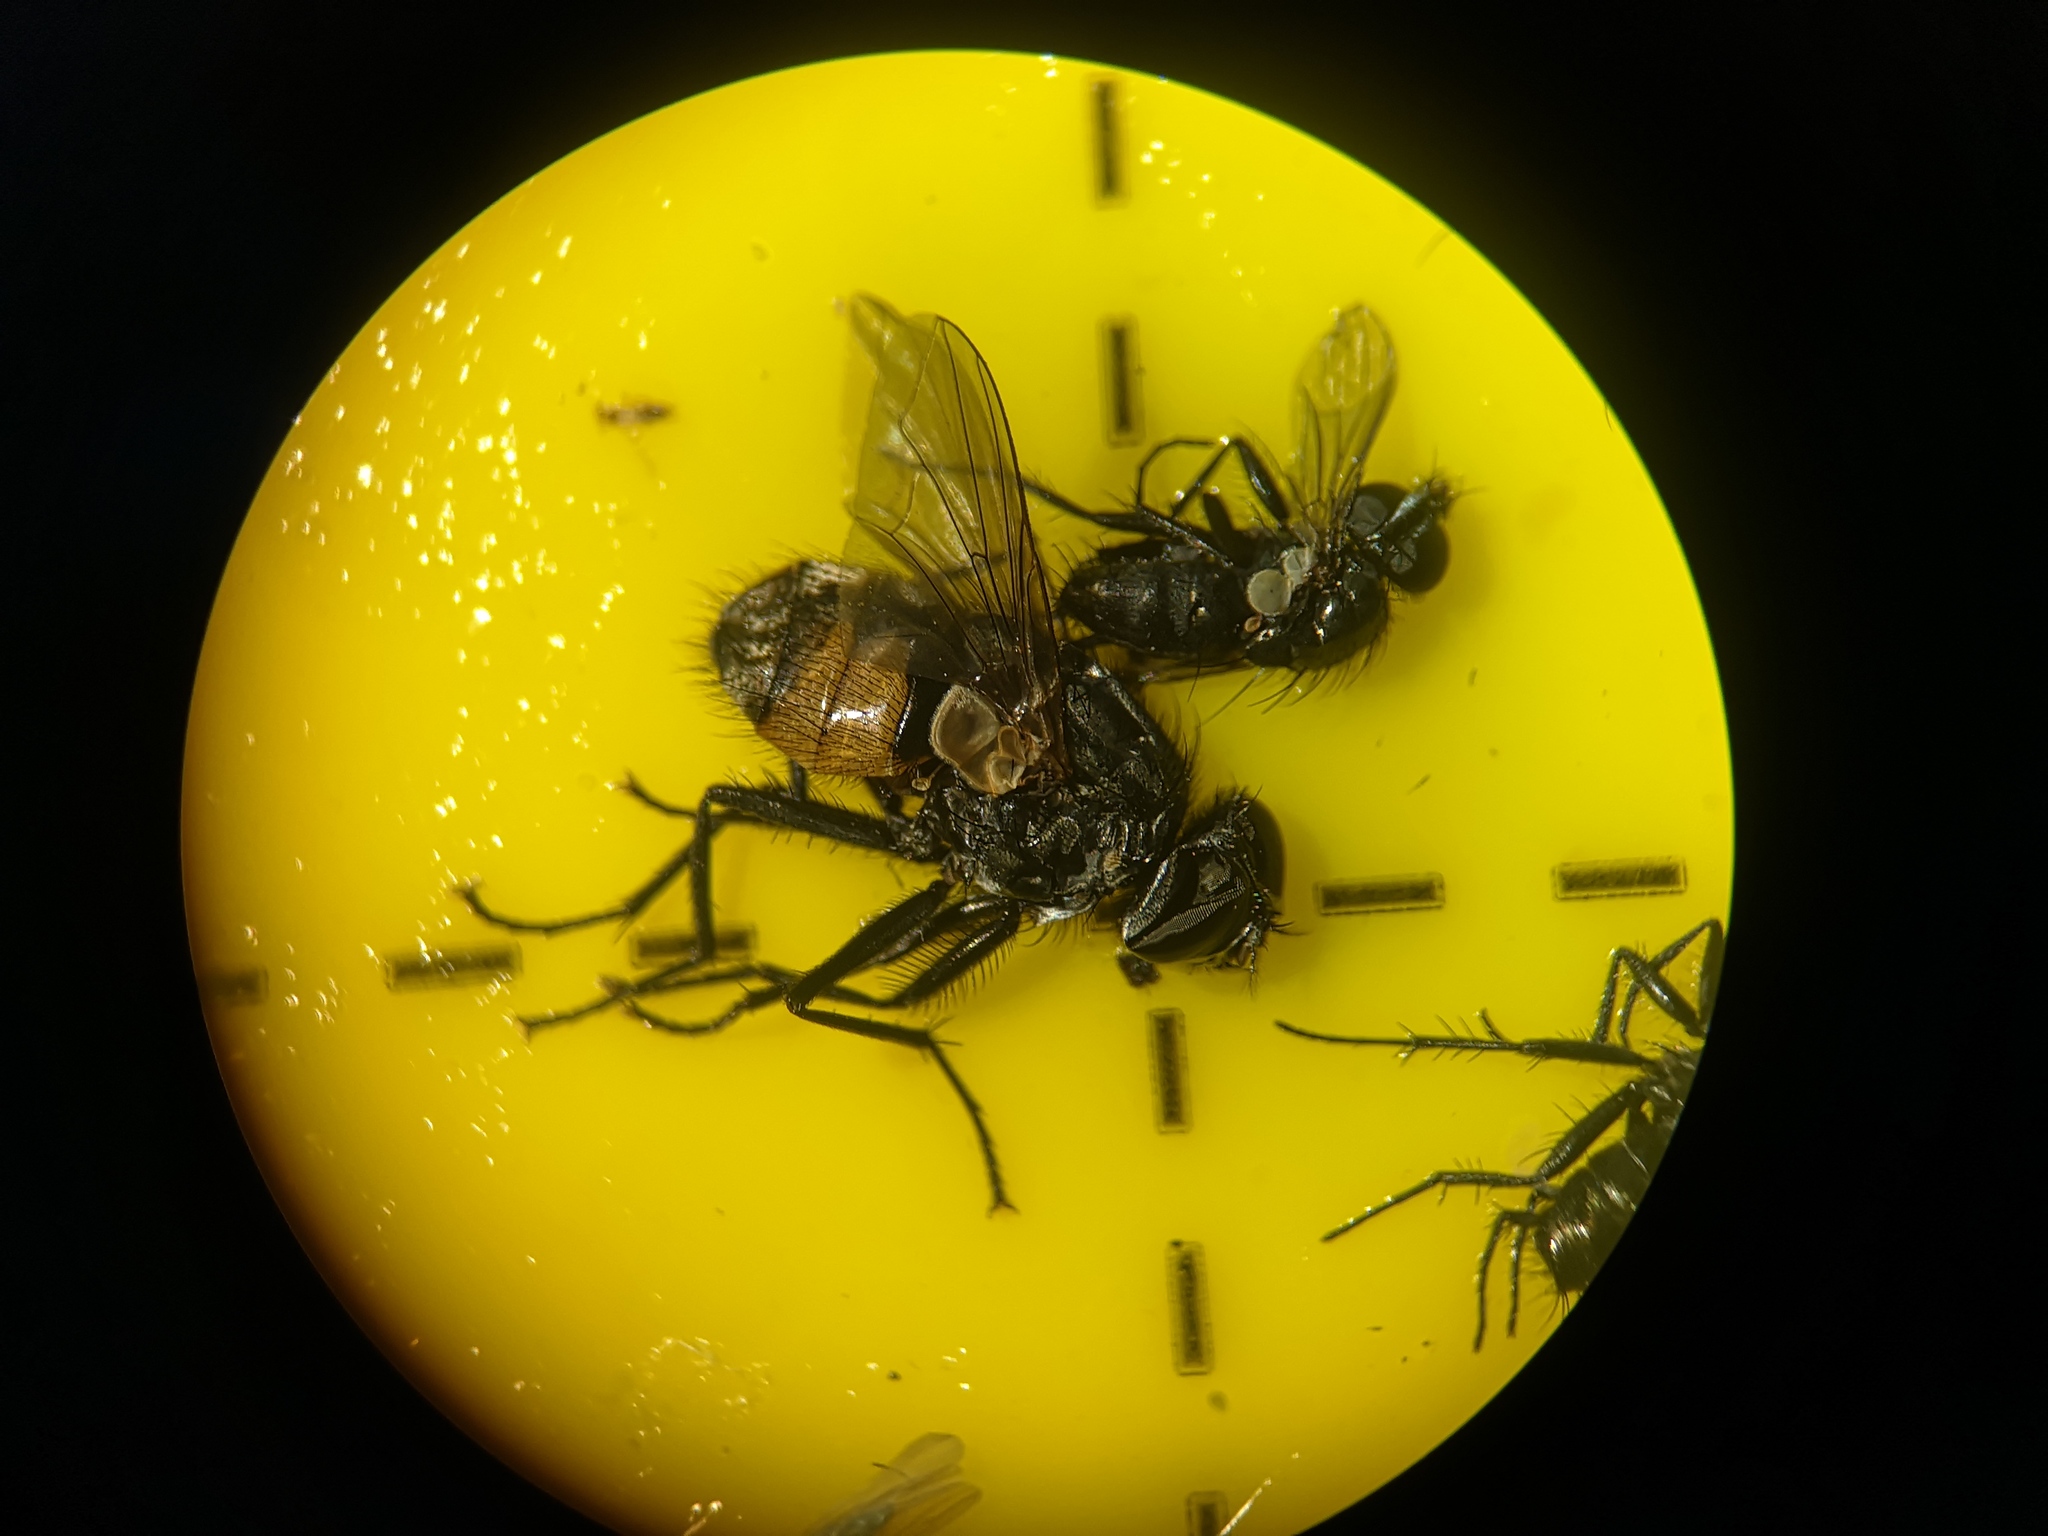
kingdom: Animalia
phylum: Arthropoda
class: Insecta
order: Diptera
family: Muscidae
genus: Musca
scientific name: Musca autumnalis
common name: Face fly
